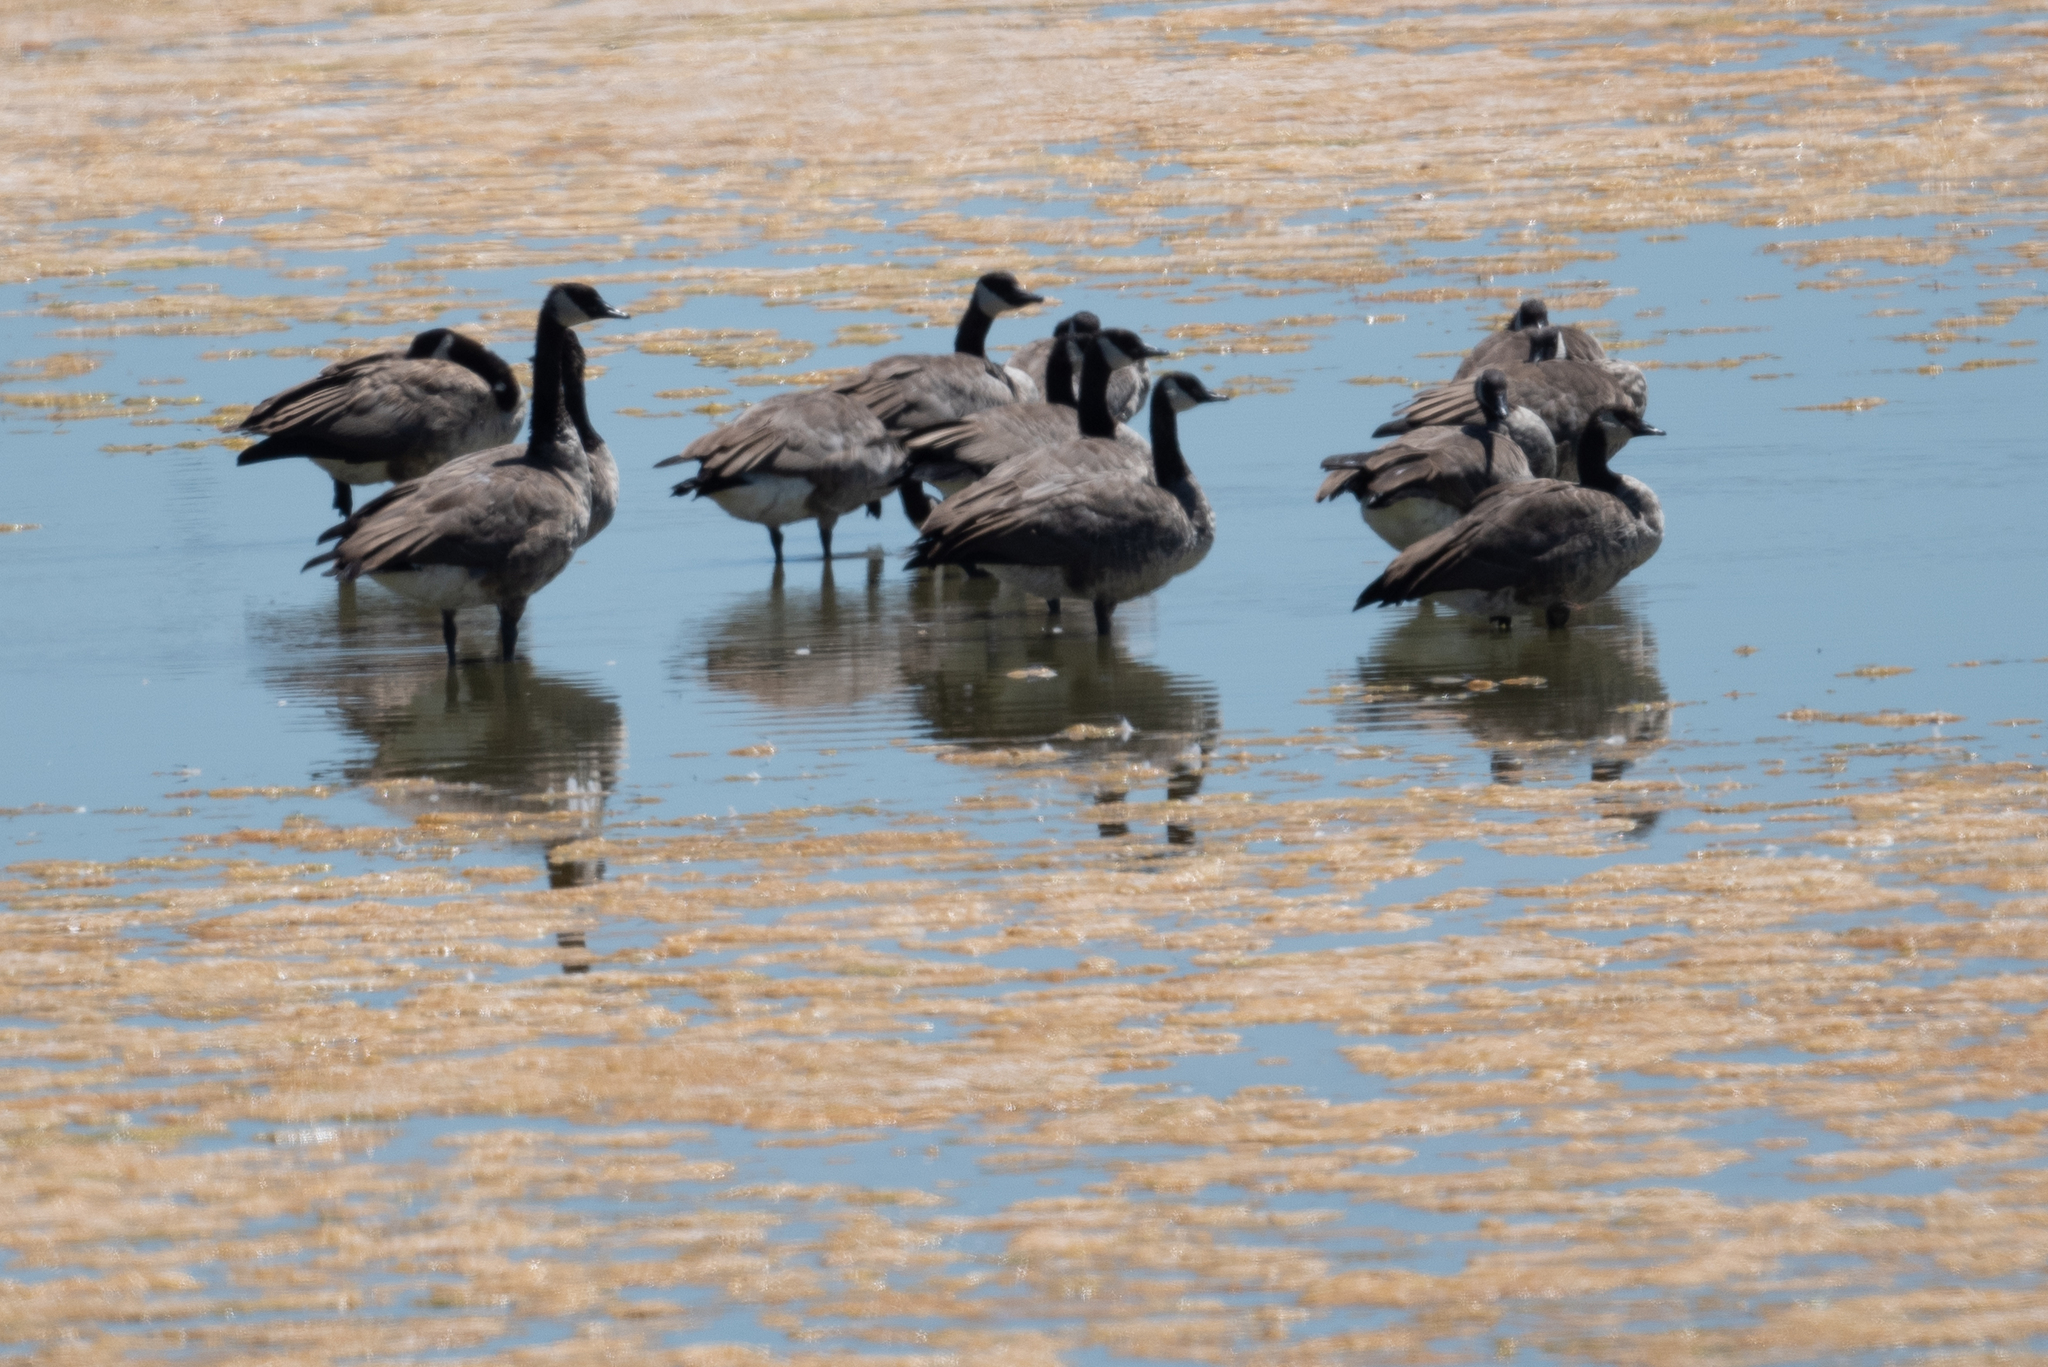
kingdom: Animalia
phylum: Chordata
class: Aves
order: Anseriformes
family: Anatidae
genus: Branta
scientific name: Branta canadensis
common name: Canada goose
